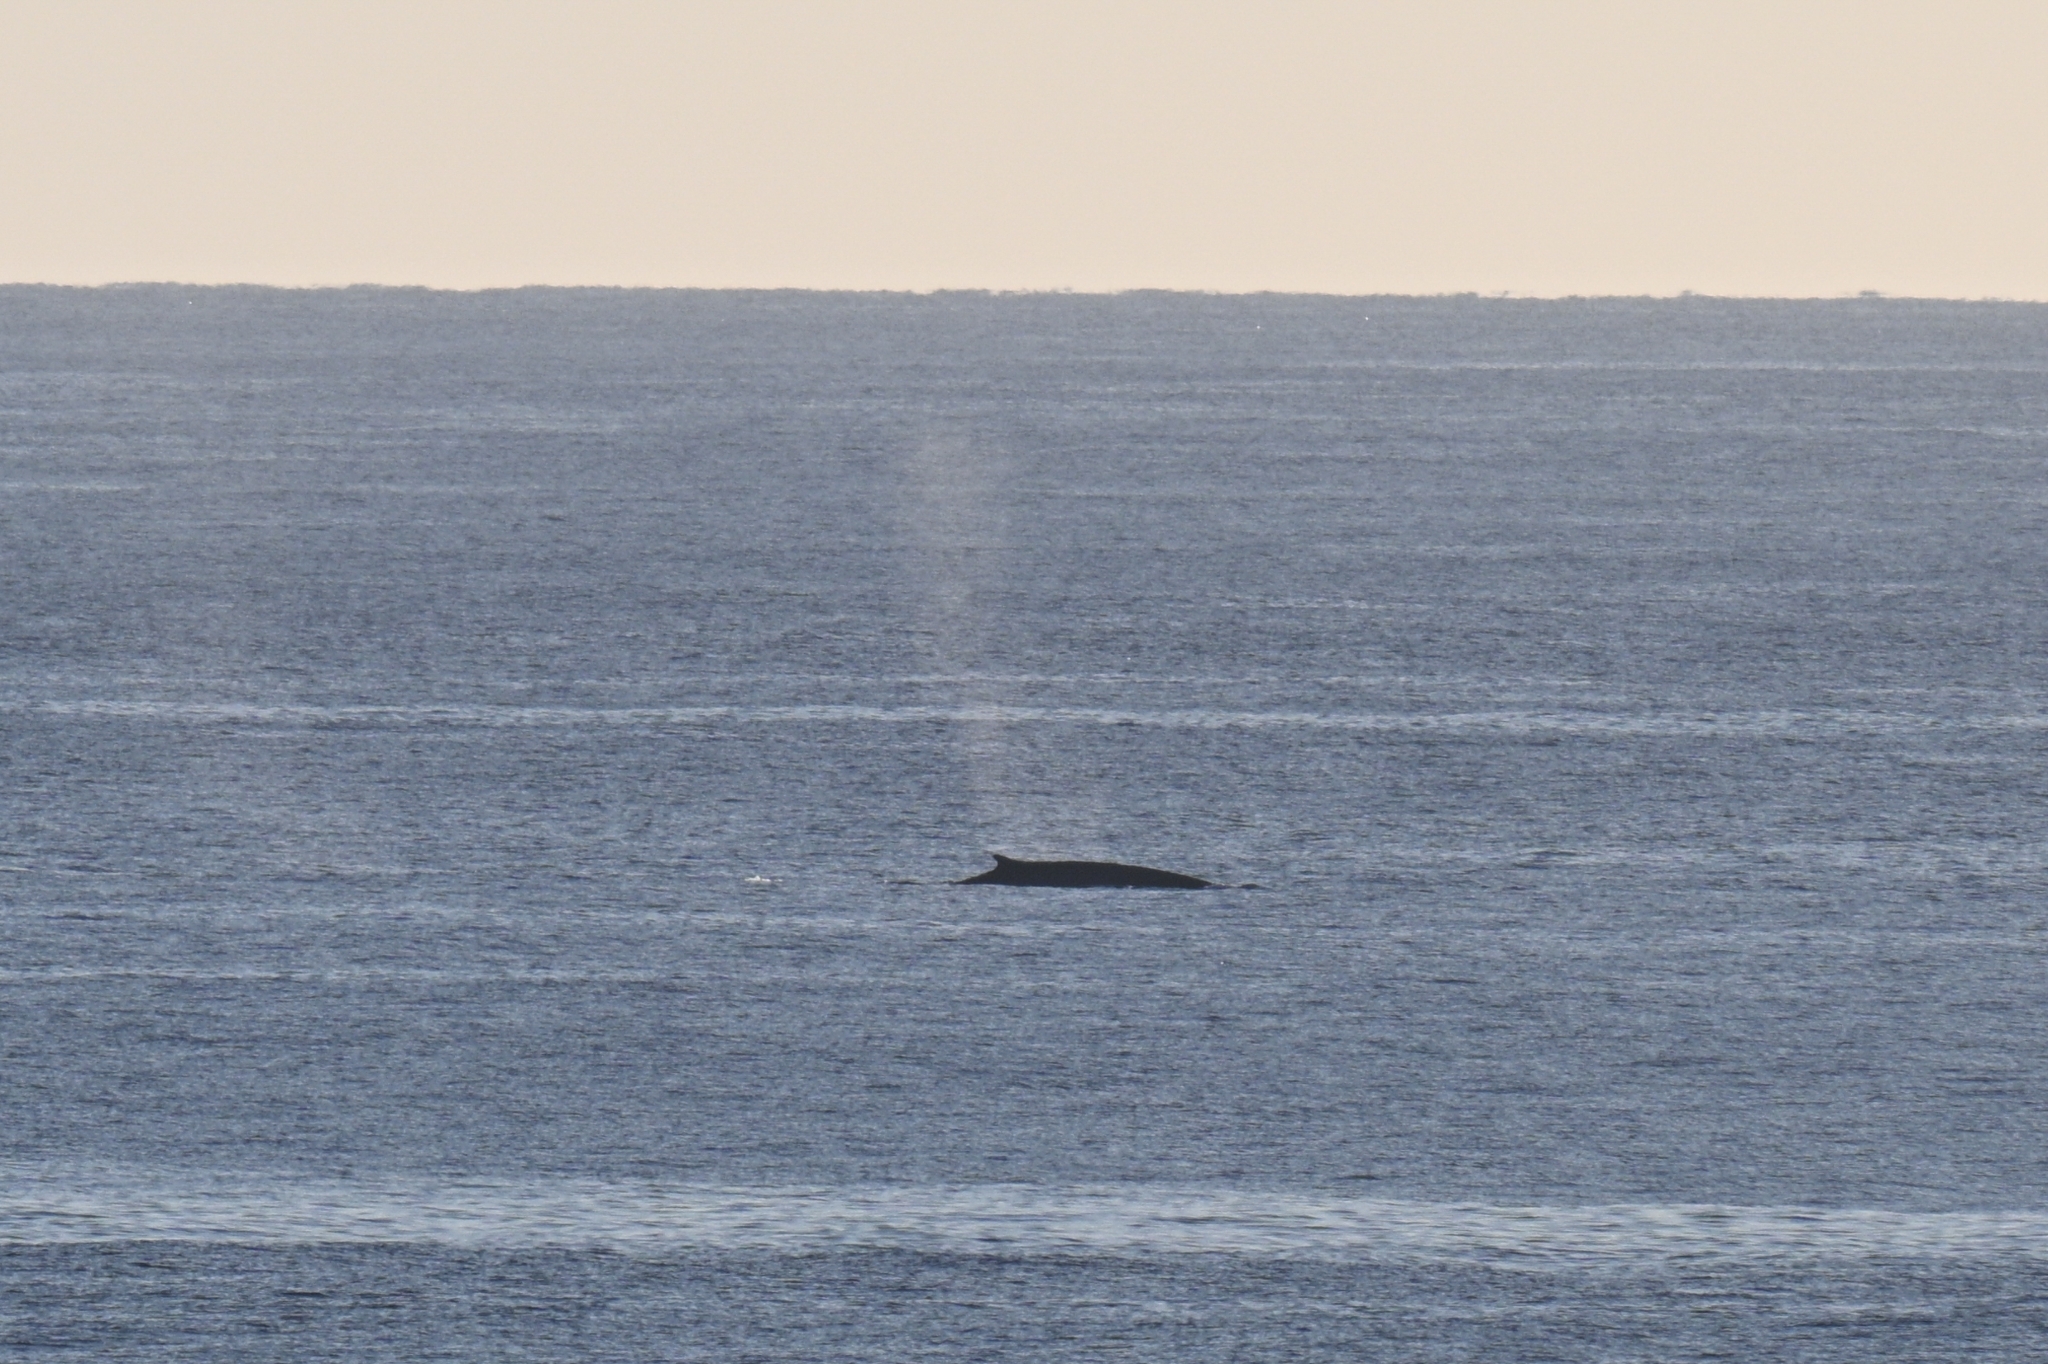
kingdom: Animalia
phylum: Chordata
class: Mammalia
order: Cetacea
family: Balaenopteridae
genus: Balaenoptera
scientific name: Balaenoptera physalus
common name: Fin whale
